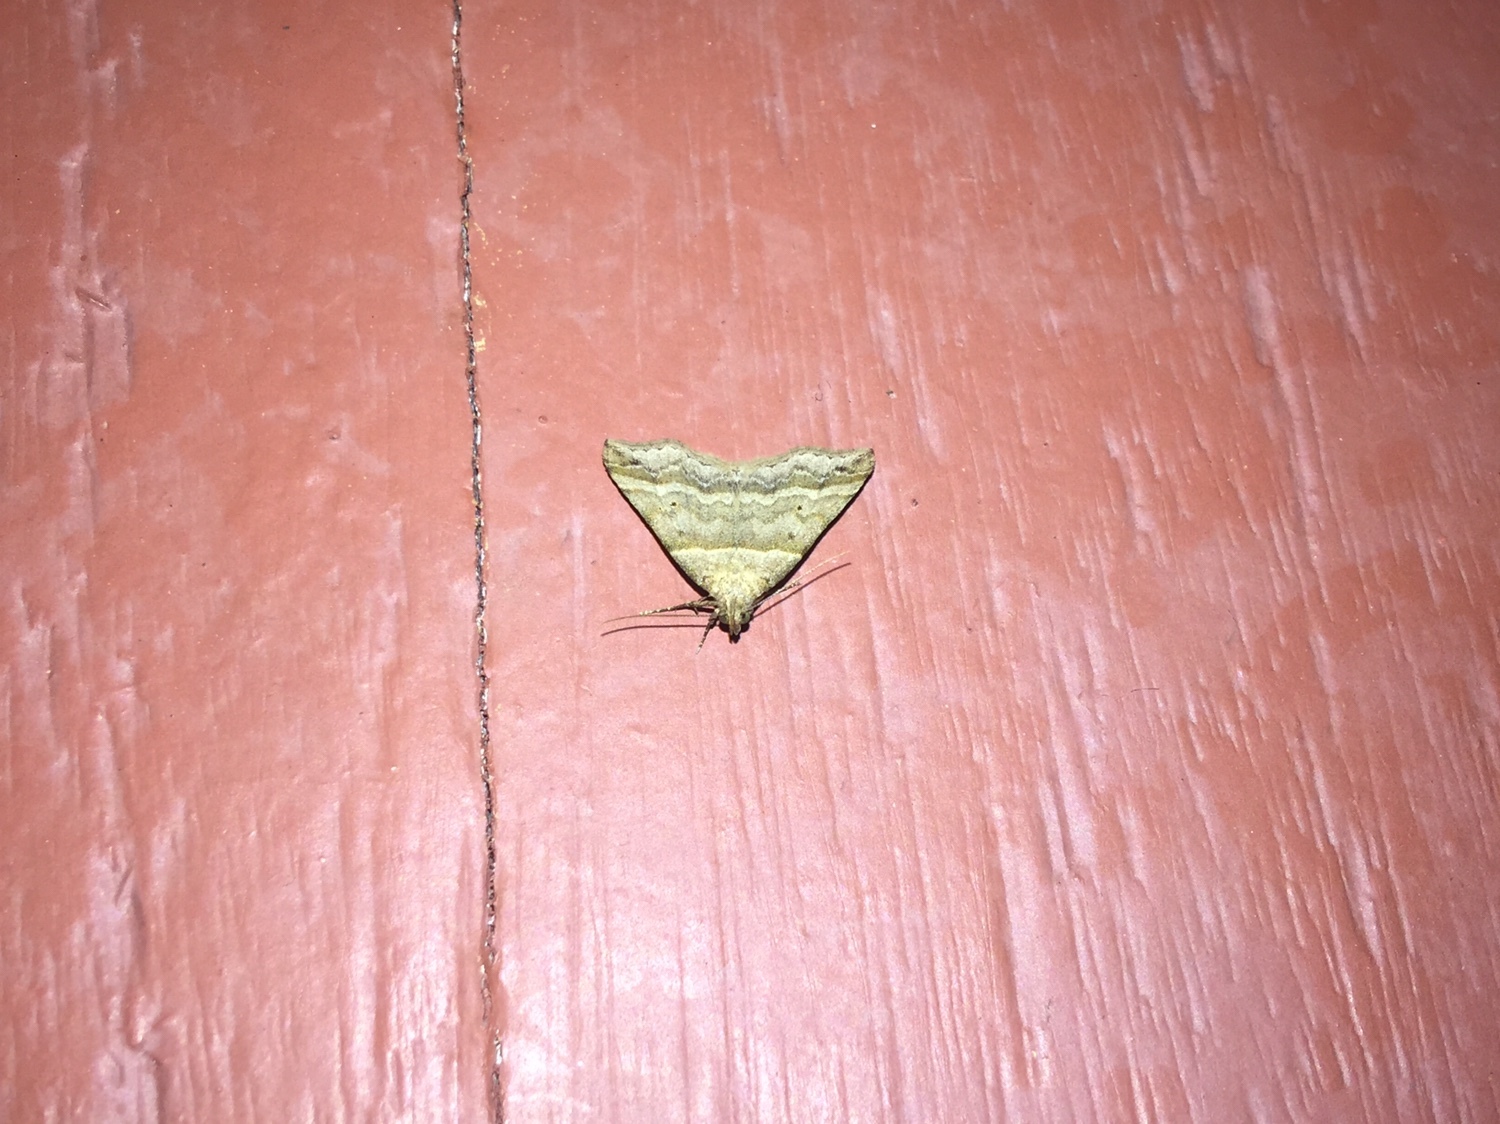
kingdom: Animalia
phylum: Arthropoda
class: Insecta
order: Lepidoptera
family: Erebidae
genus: Phaeolita
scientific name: Phaeolita pyramusalis
